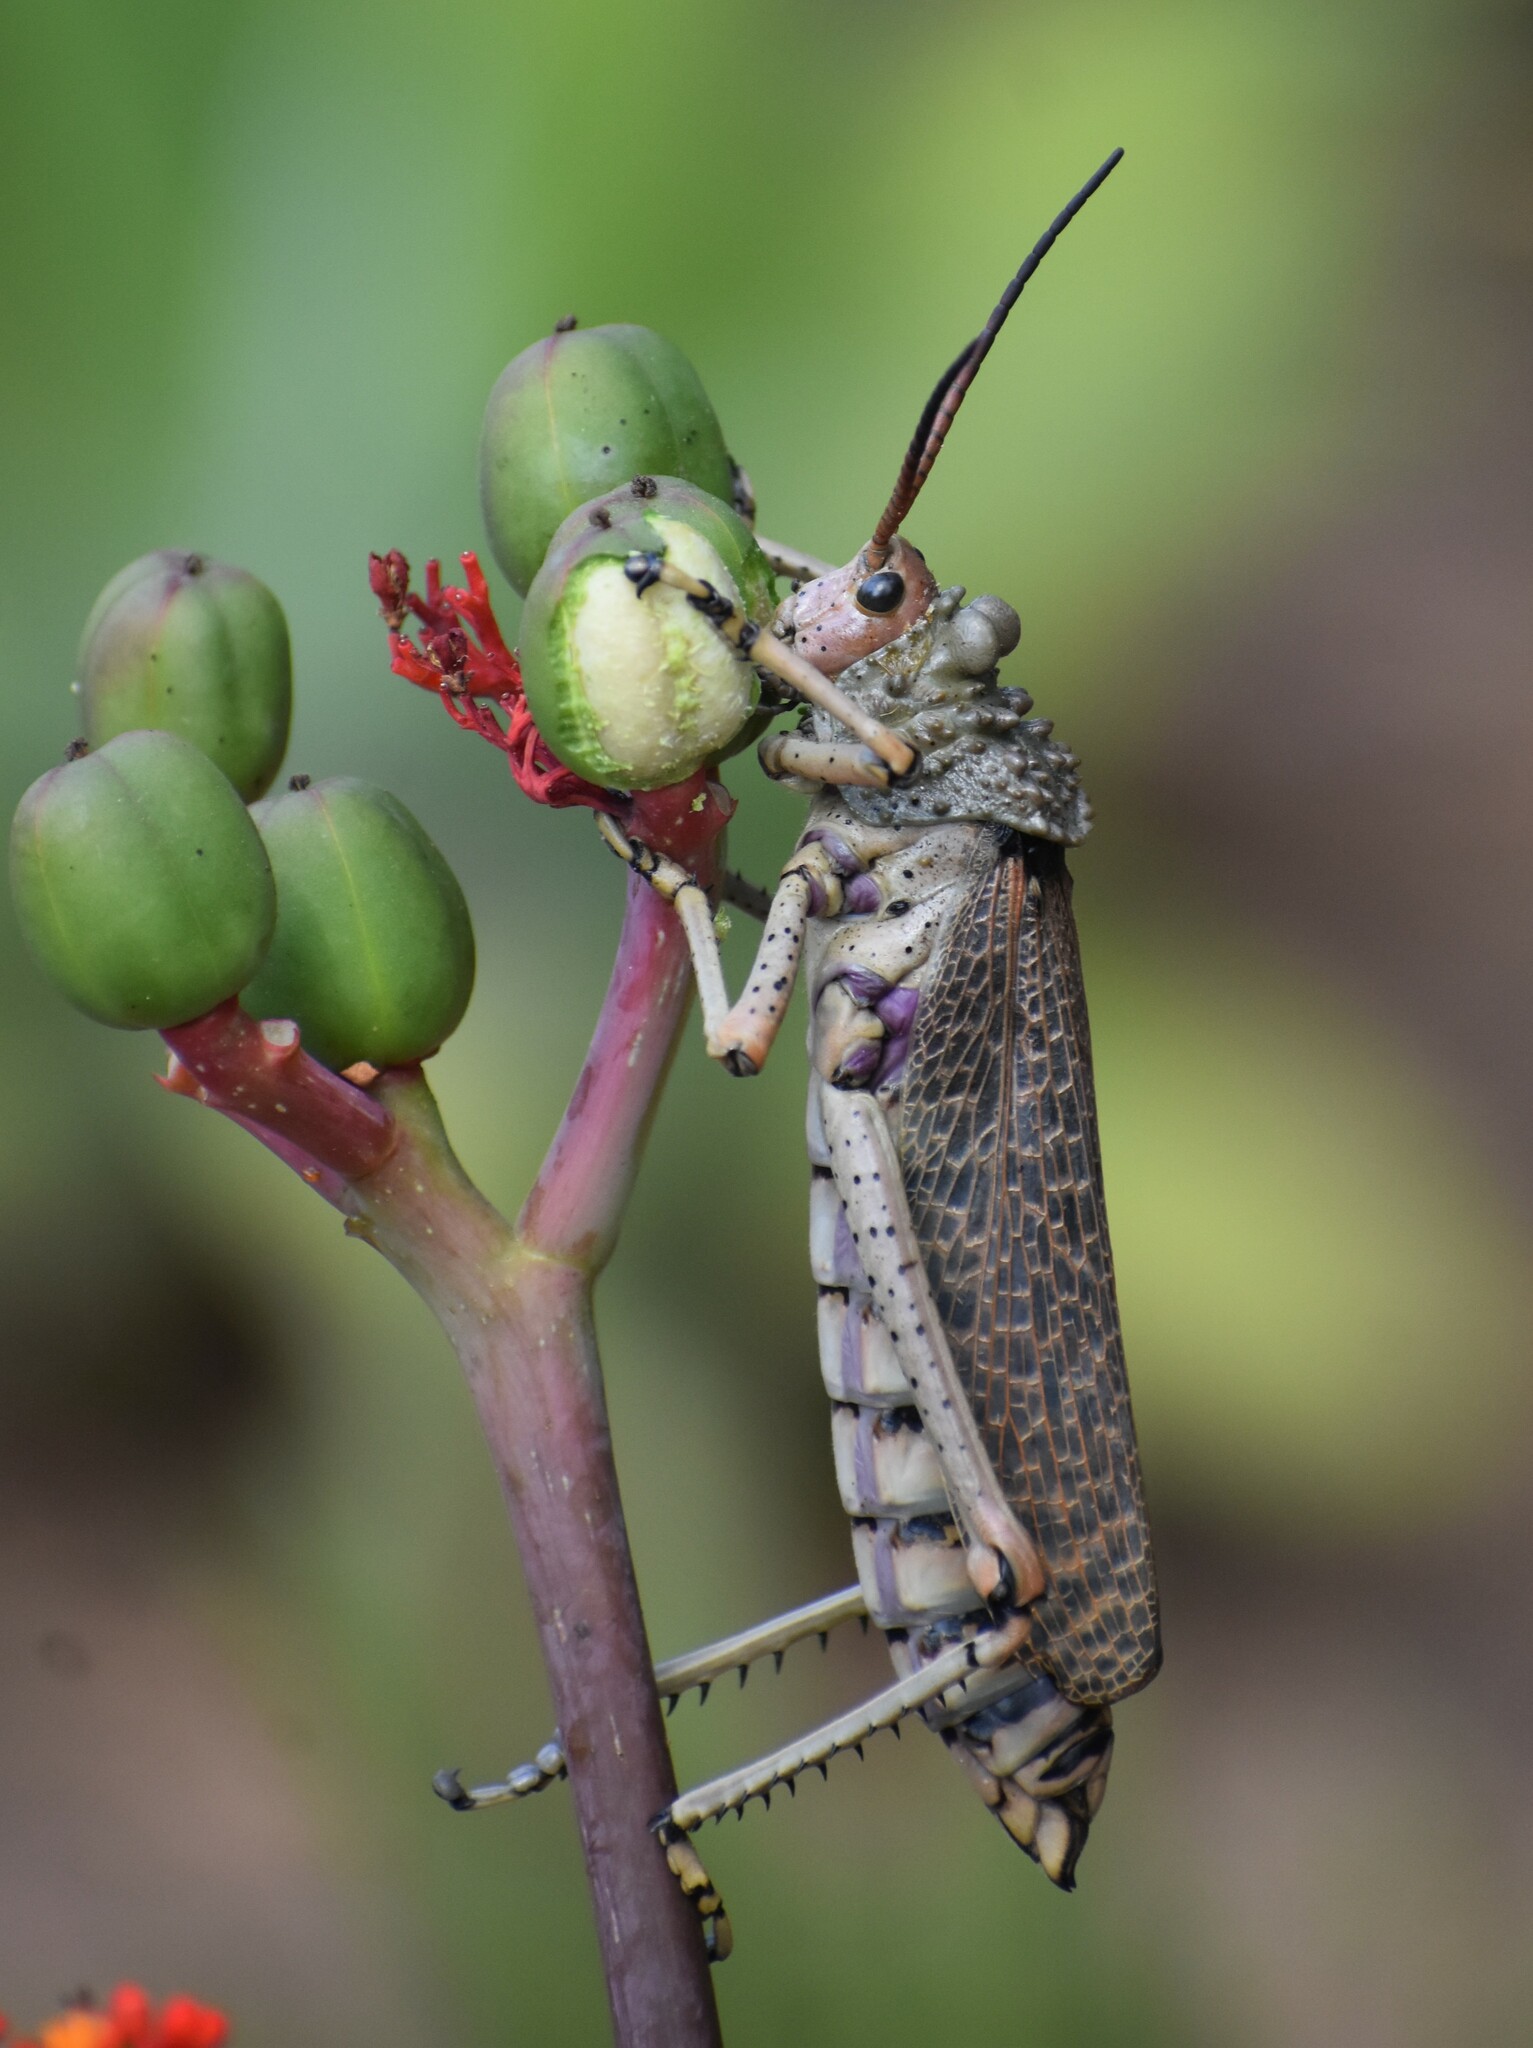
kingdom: Animalia
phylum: Arthropoda
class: Insecta
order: Orthoptera
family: Pyrgomorphidae
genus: Phymateus
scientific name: Phymateus leprosus
